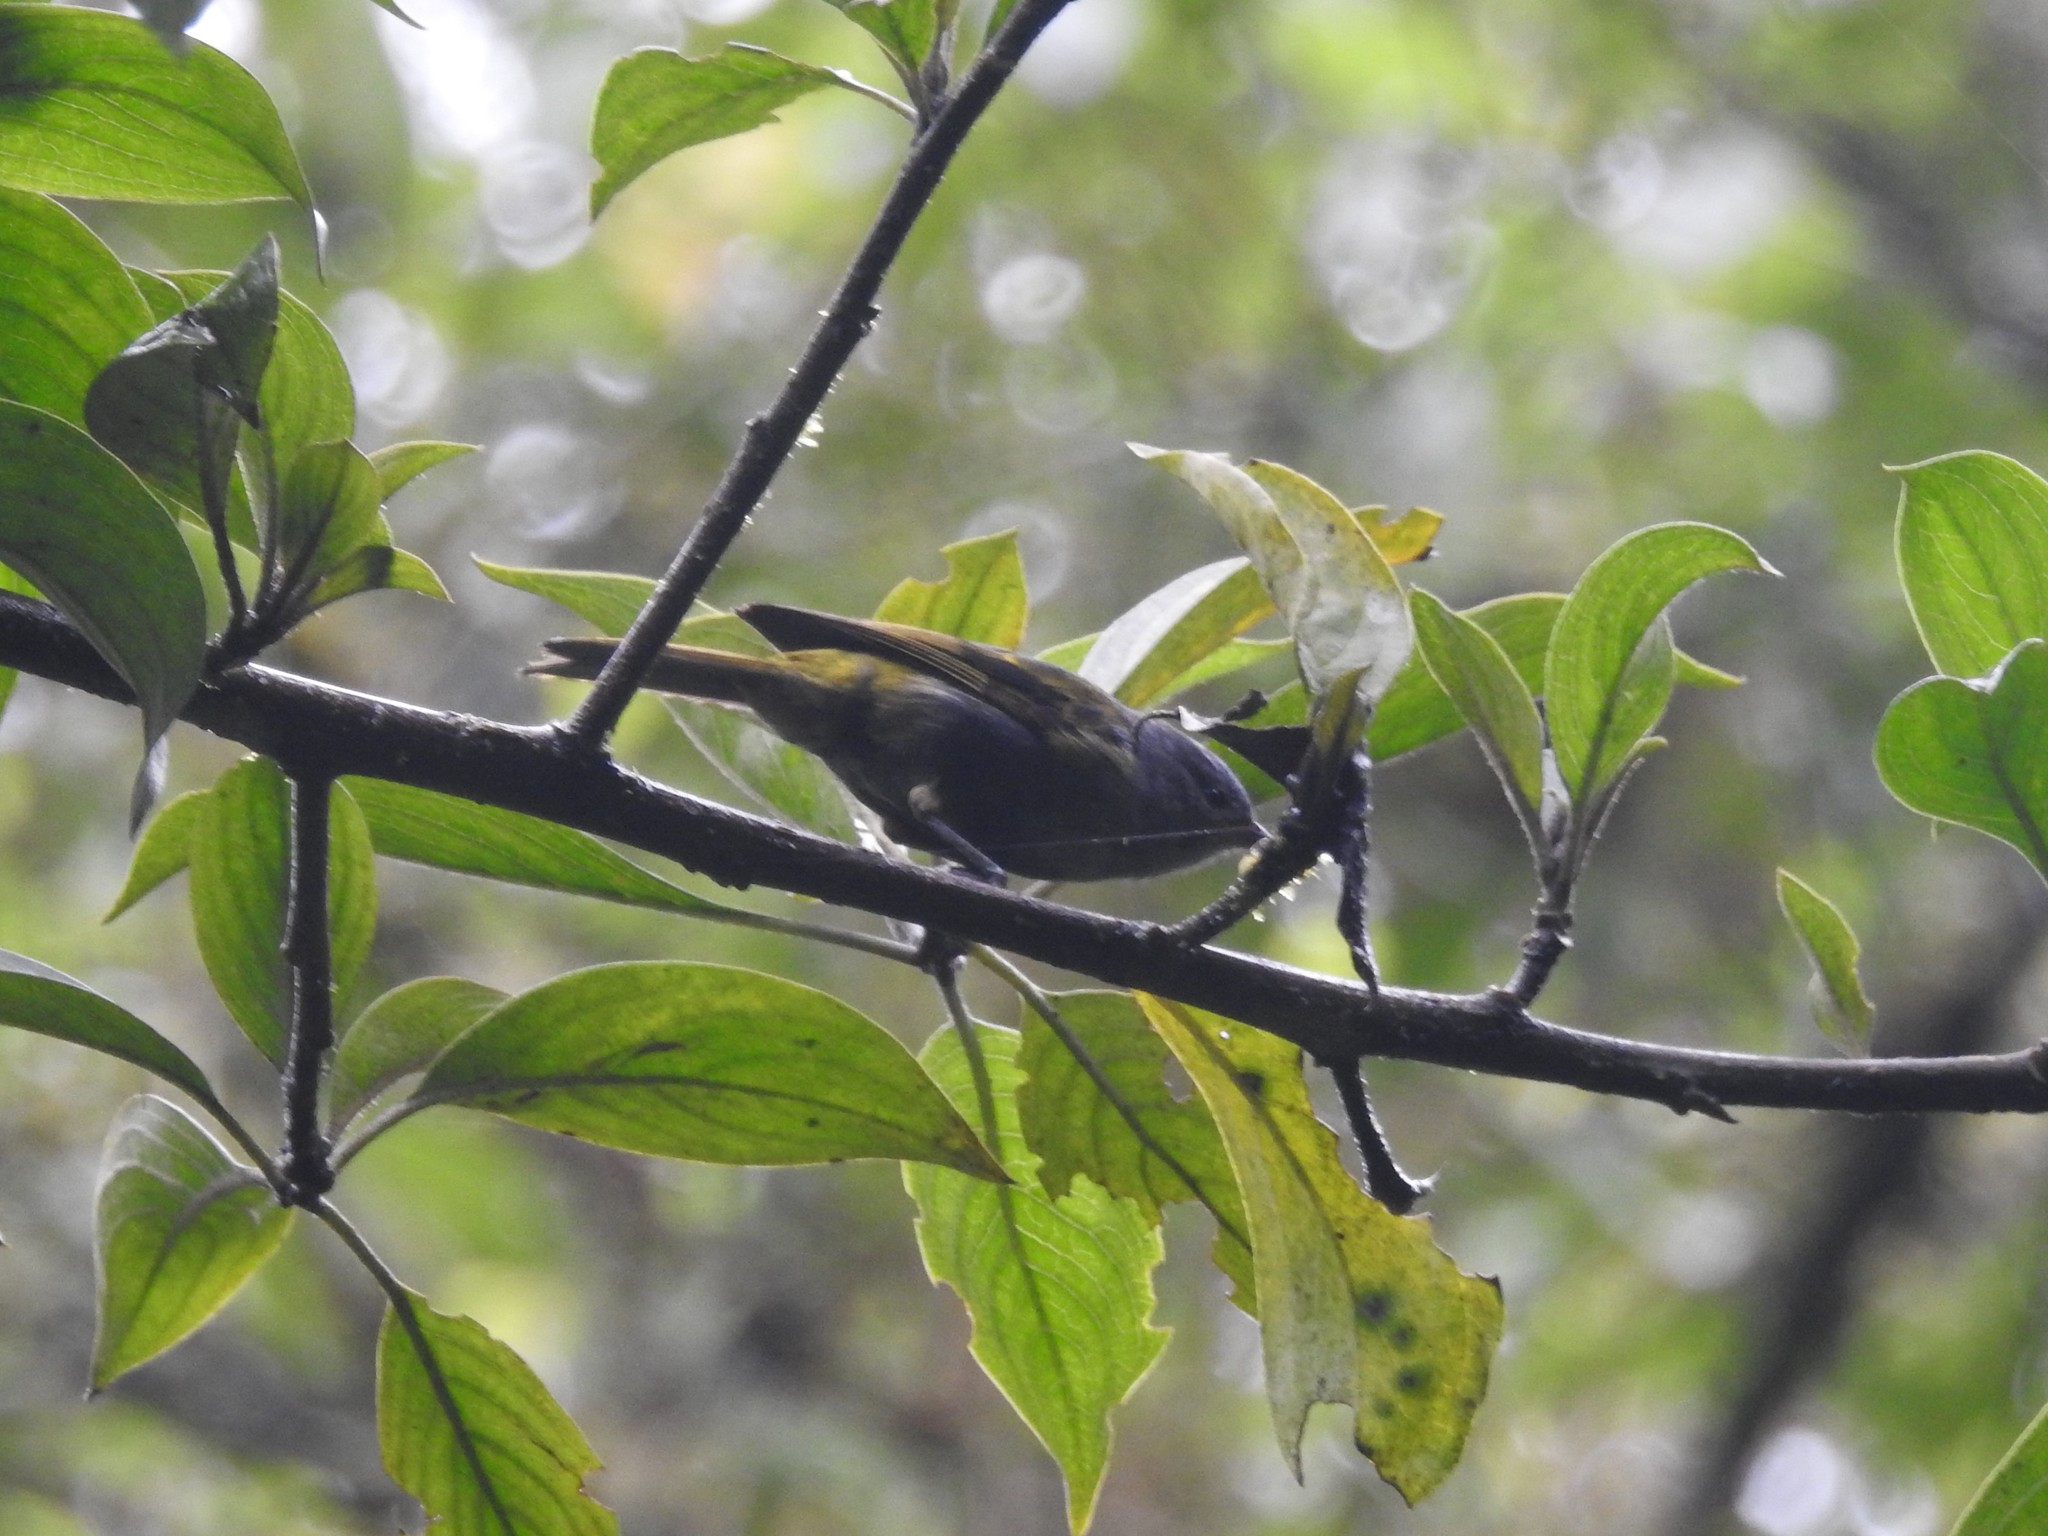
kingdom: Animalia
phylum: Chordata
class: Aves
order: Passeriformes
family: Thraupidae
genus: Conirostrum
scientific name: Conirostrum albifrons
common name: Capped conebill
